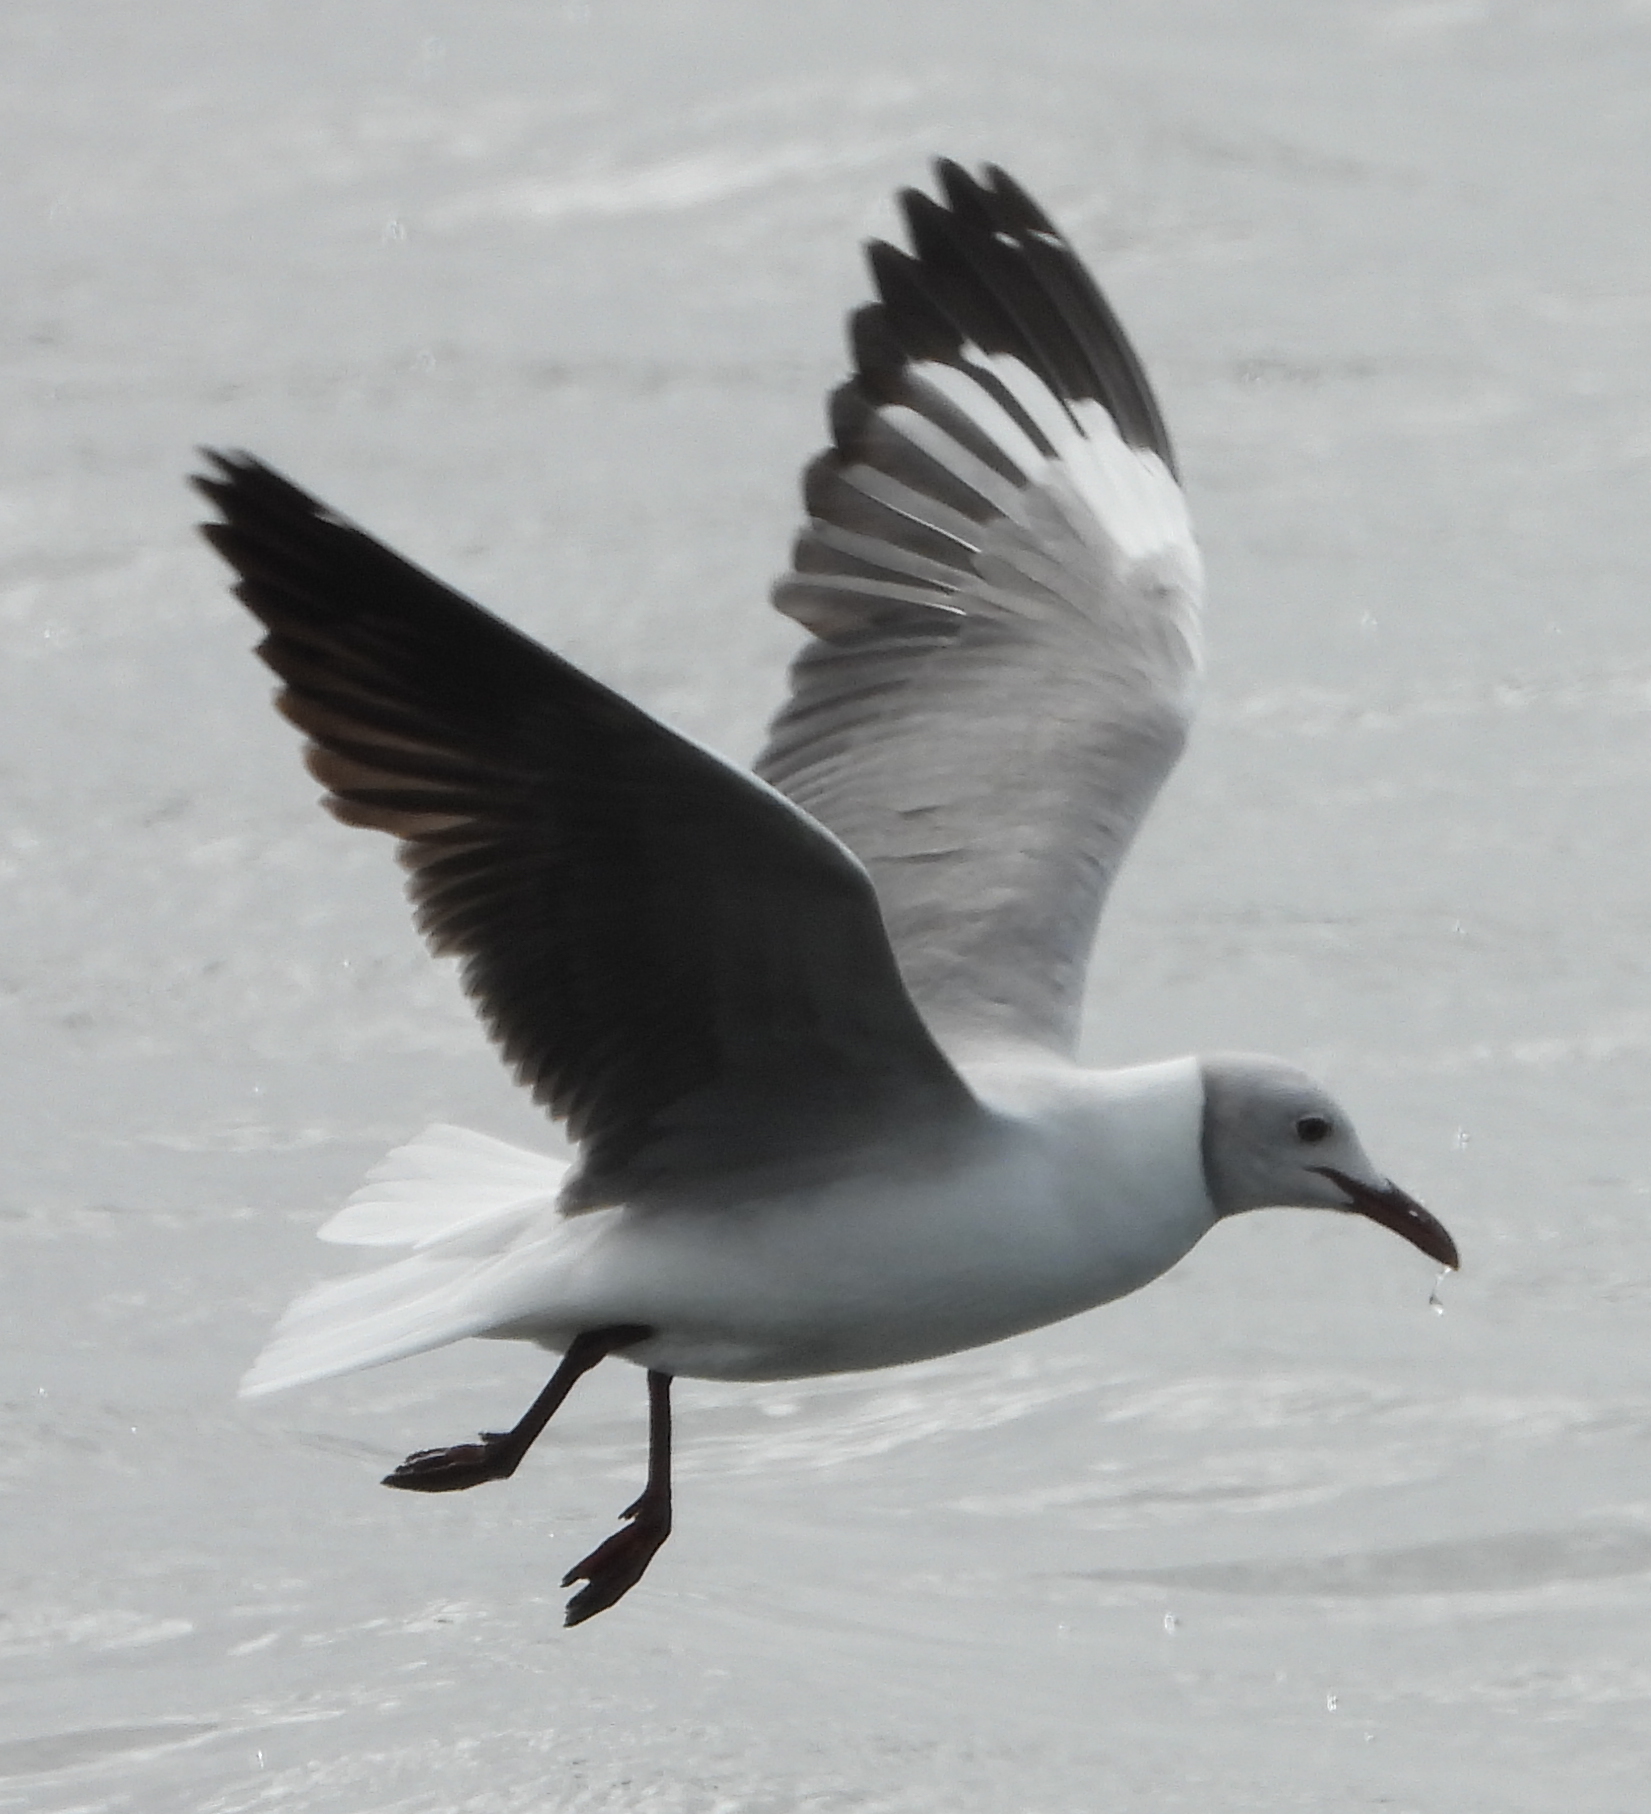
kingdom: Animalia
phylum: Chordata
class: Aves
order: Charadriiformes
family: Laridae
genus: Chroicocephalus
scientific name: Chroicocephalus cirrocephalus
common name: Grey-headed gull
